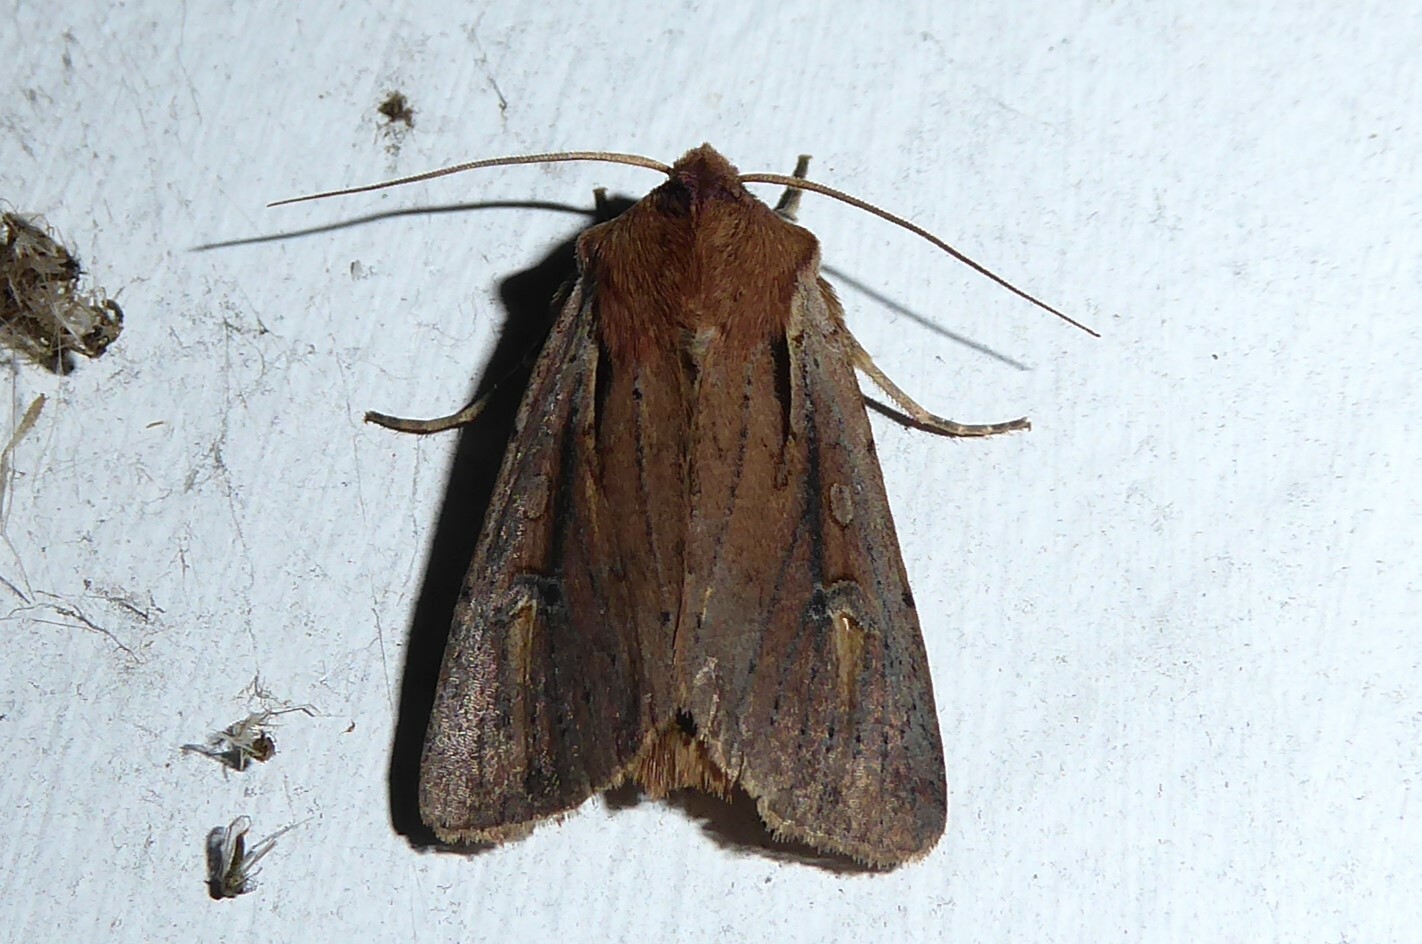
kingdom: Animalia
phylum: Arthropoda
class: Insecta
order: Lepidoptera
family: Noctuidae
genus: Ichneutica
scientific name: Ichneutica atristriga
